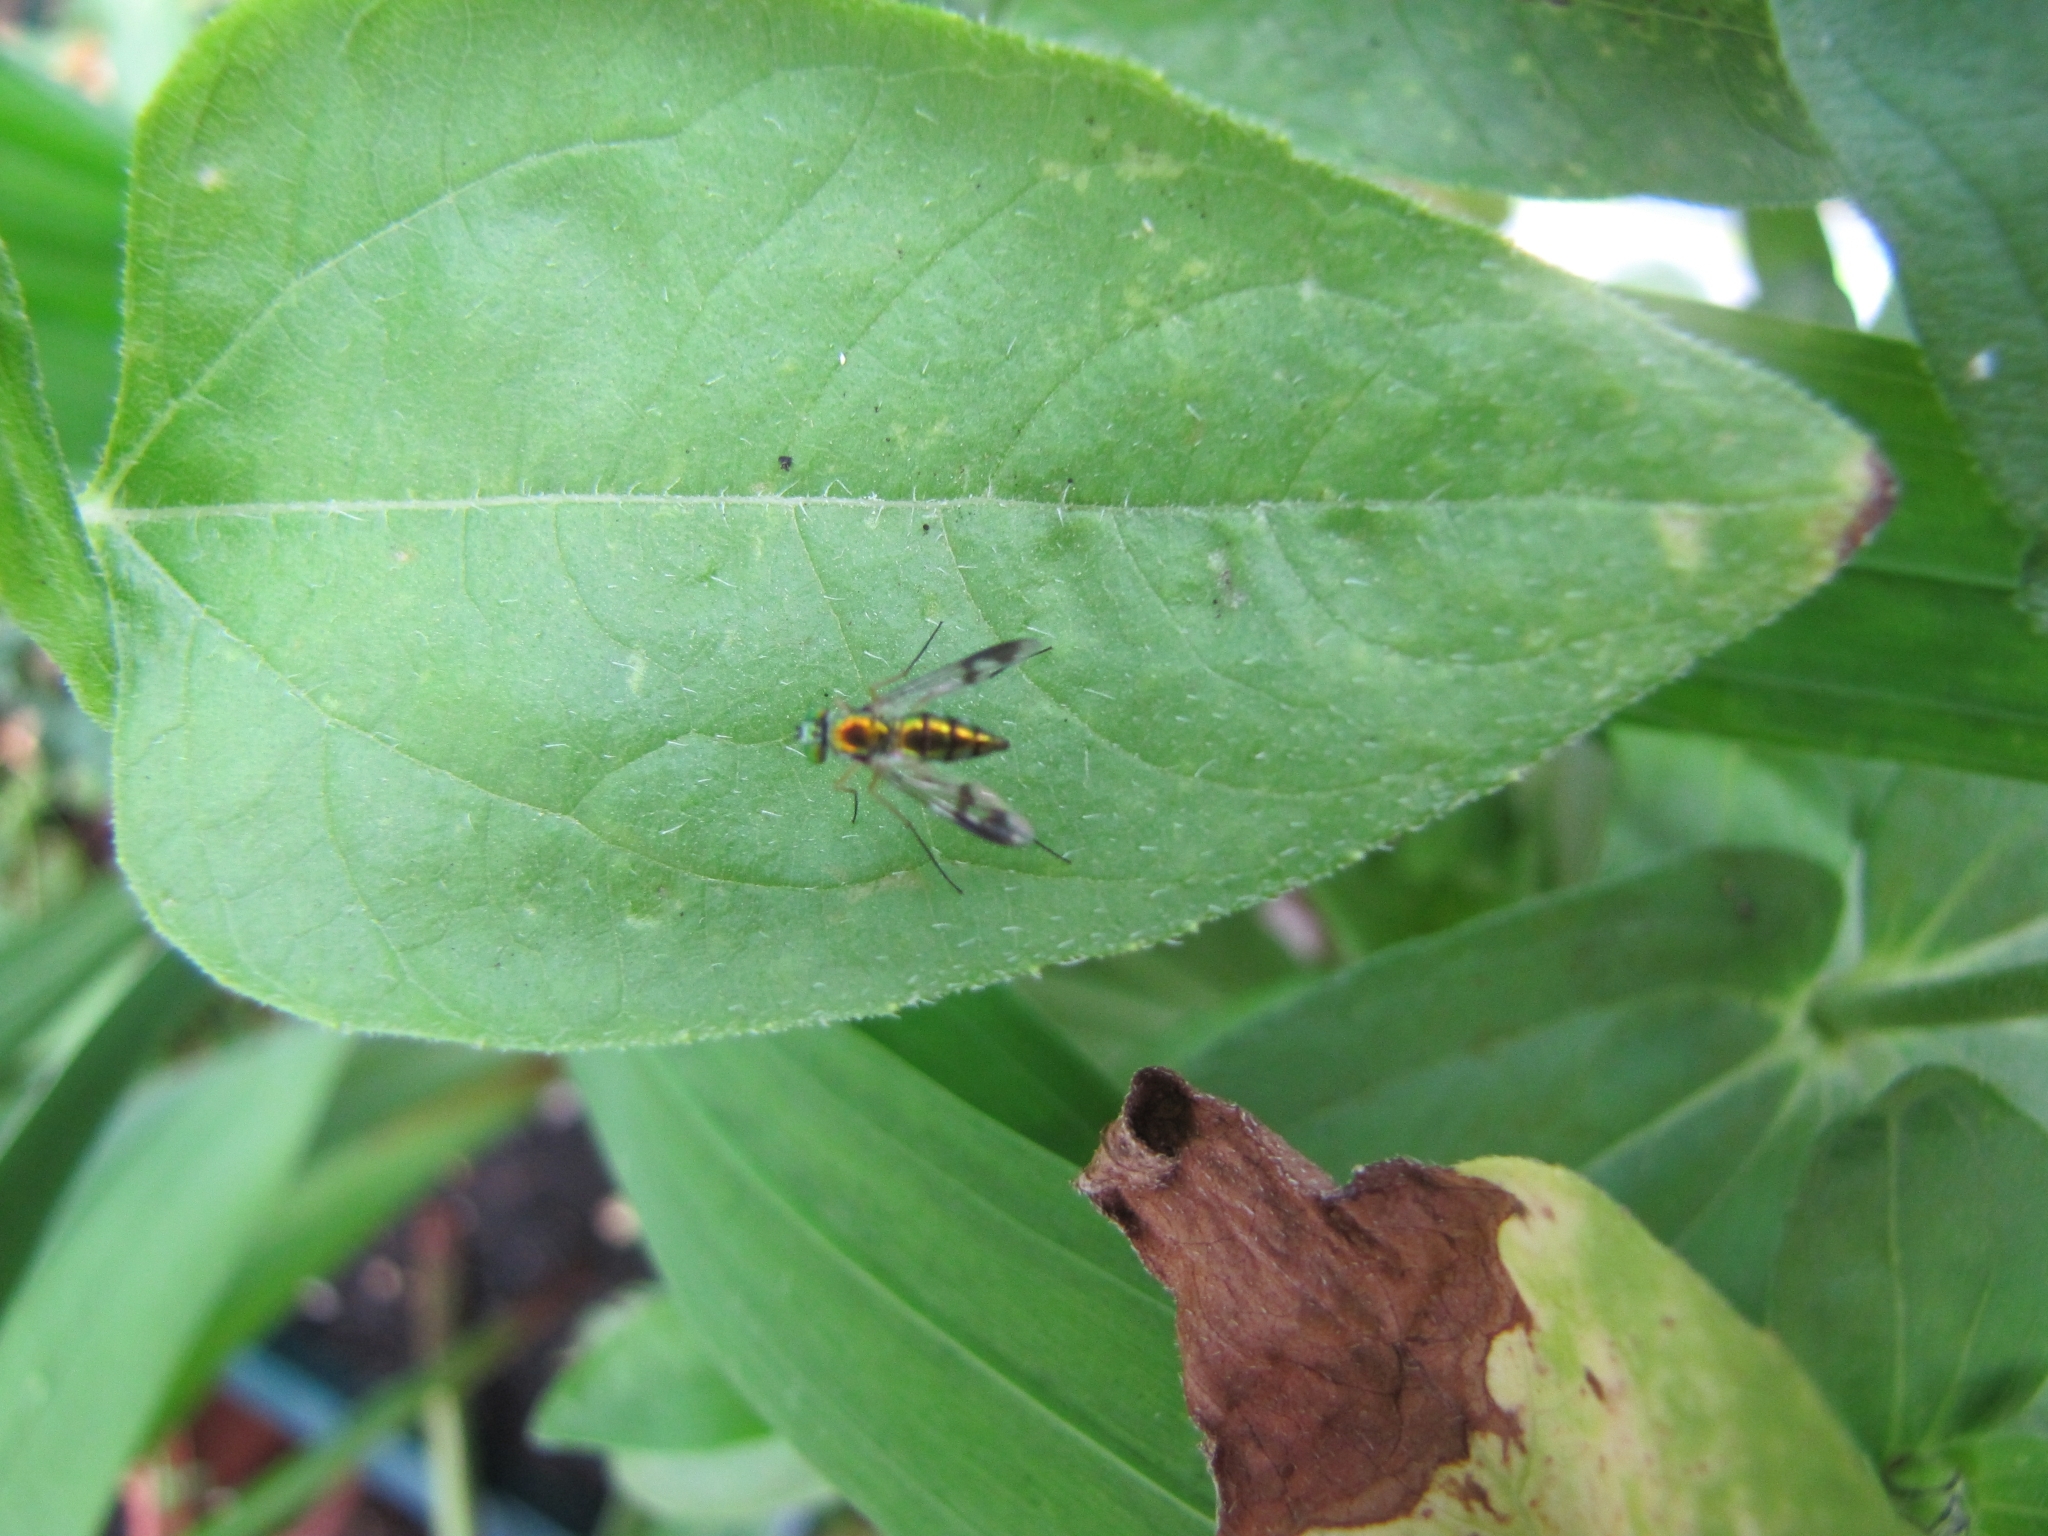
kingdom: Animalia
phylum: Arthropoda
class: Insecta
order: Diptera
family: Dolichopodidae
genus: Condylostylus
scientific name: Condylostylus
